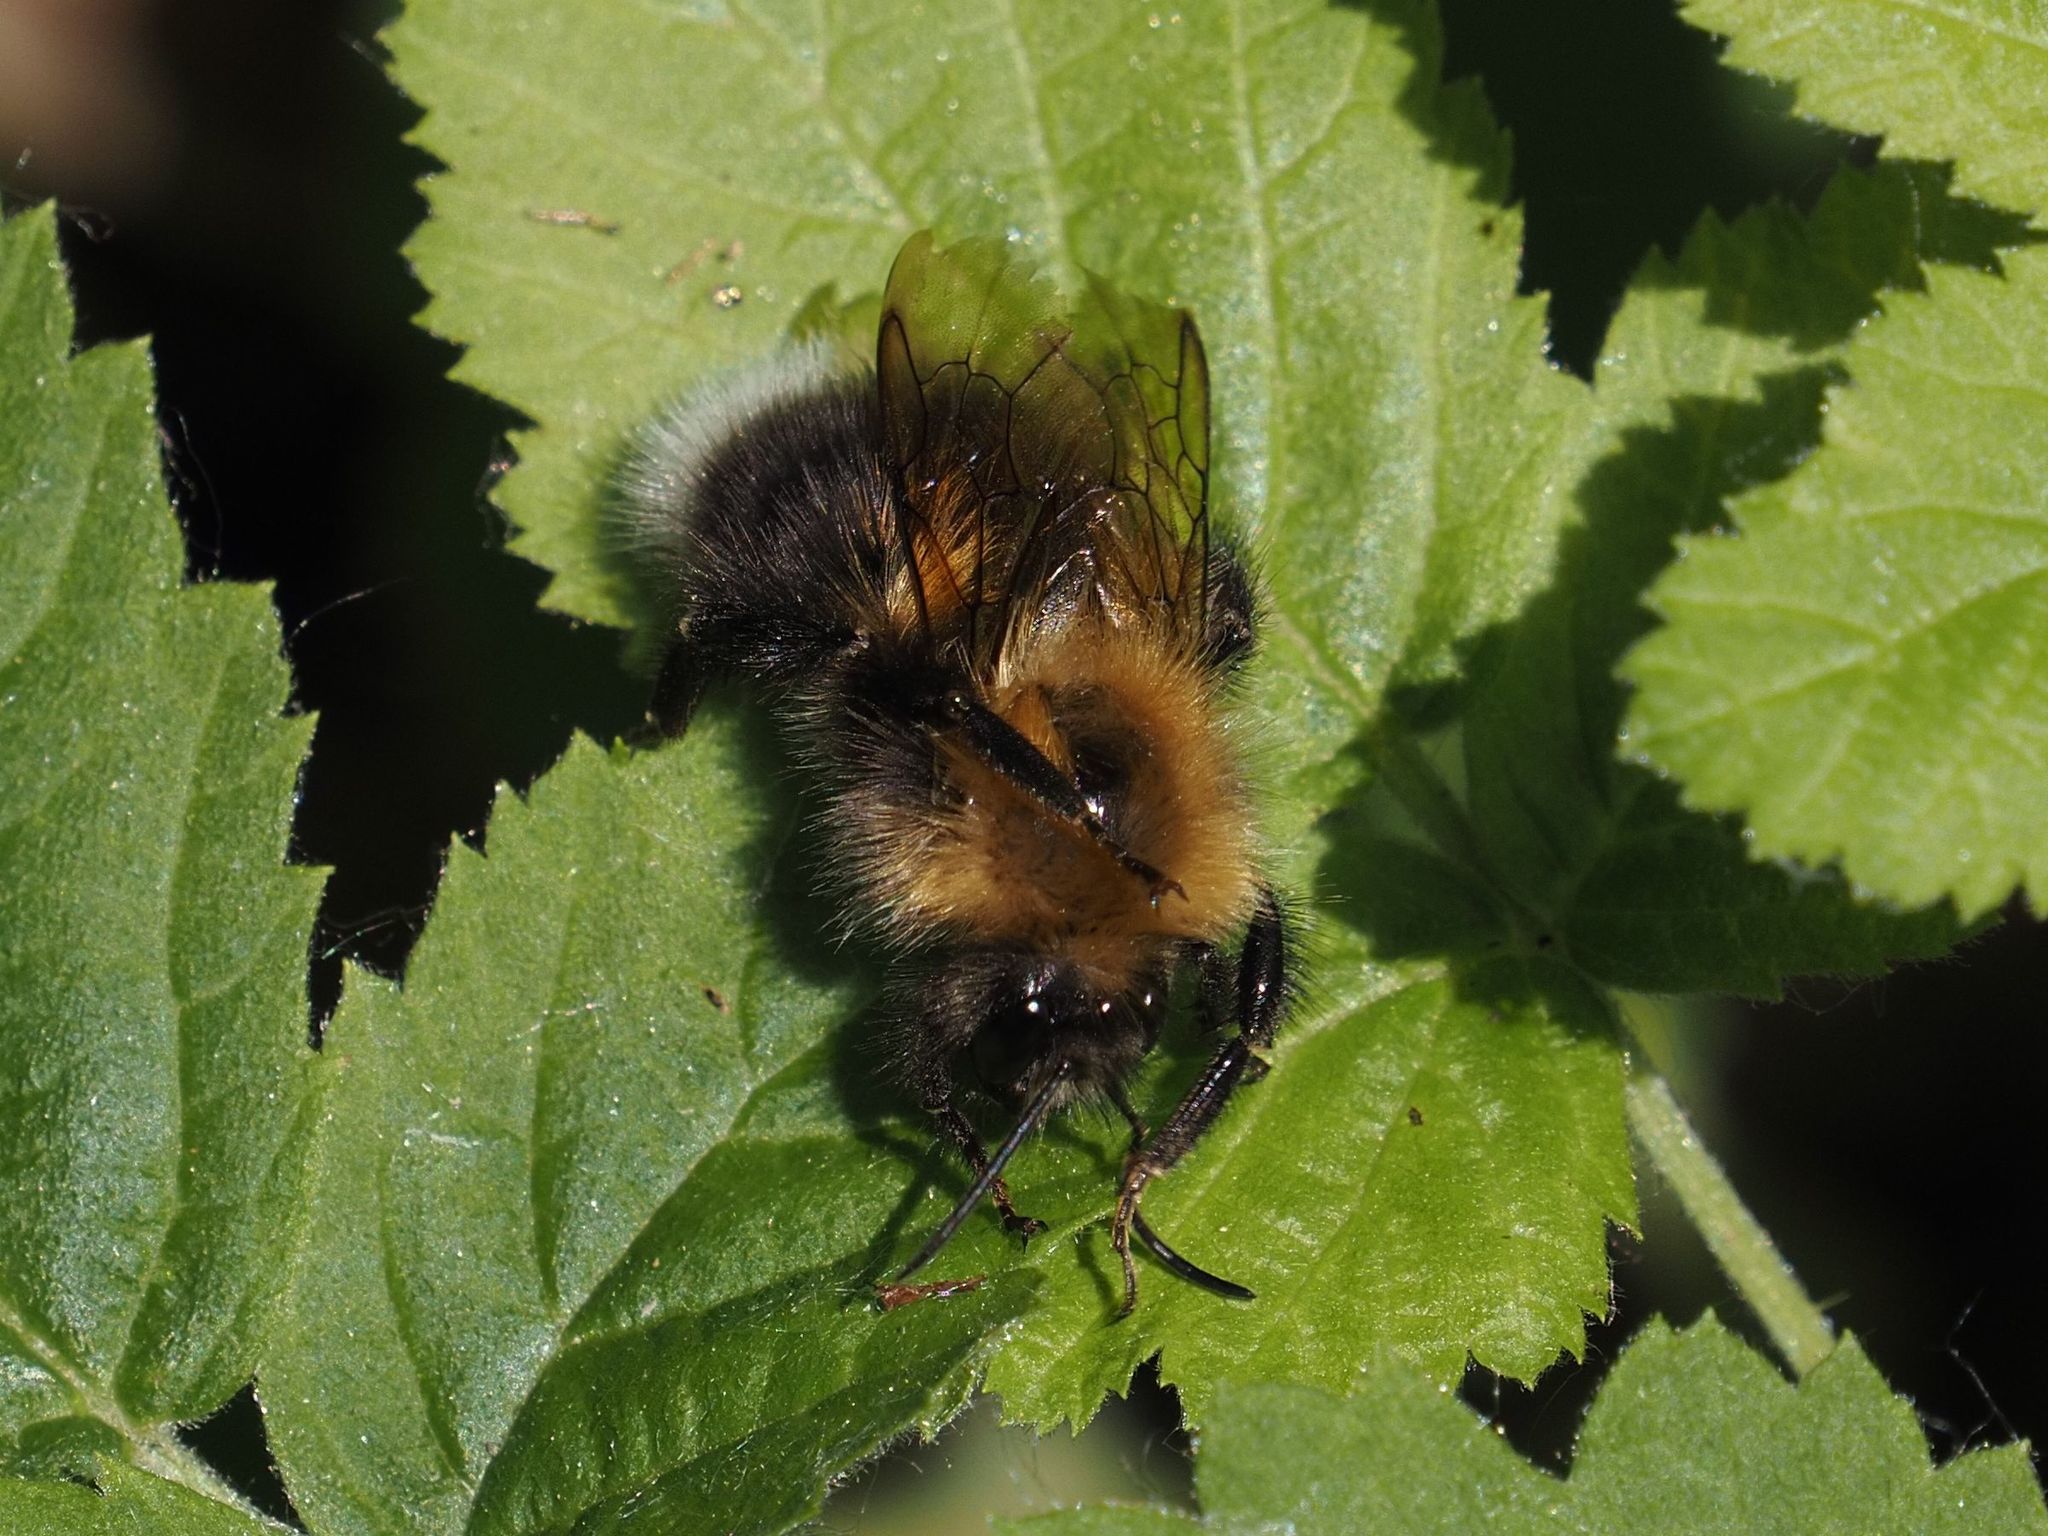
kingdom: Animalia
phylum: Arthropoda
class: Insecta
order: Hymenoptera
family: Apidae
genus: Bombus
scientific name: Bombus hypnorum
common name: New garden bumblebee
